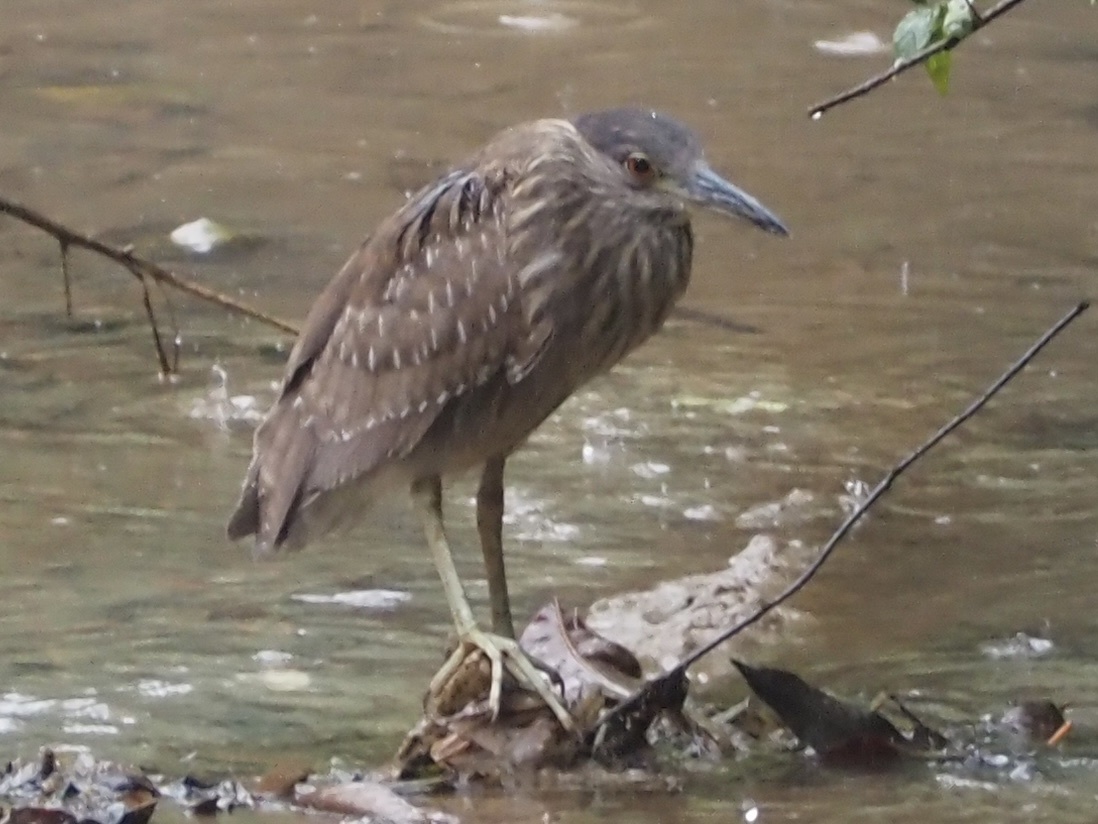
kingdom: Animalia
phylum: Chordata
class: Aves
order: Pelecaniformes
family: Ardeidae
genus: Nycticorax
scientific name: Nycticorax nycticorax
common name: Black-crowned night heron
